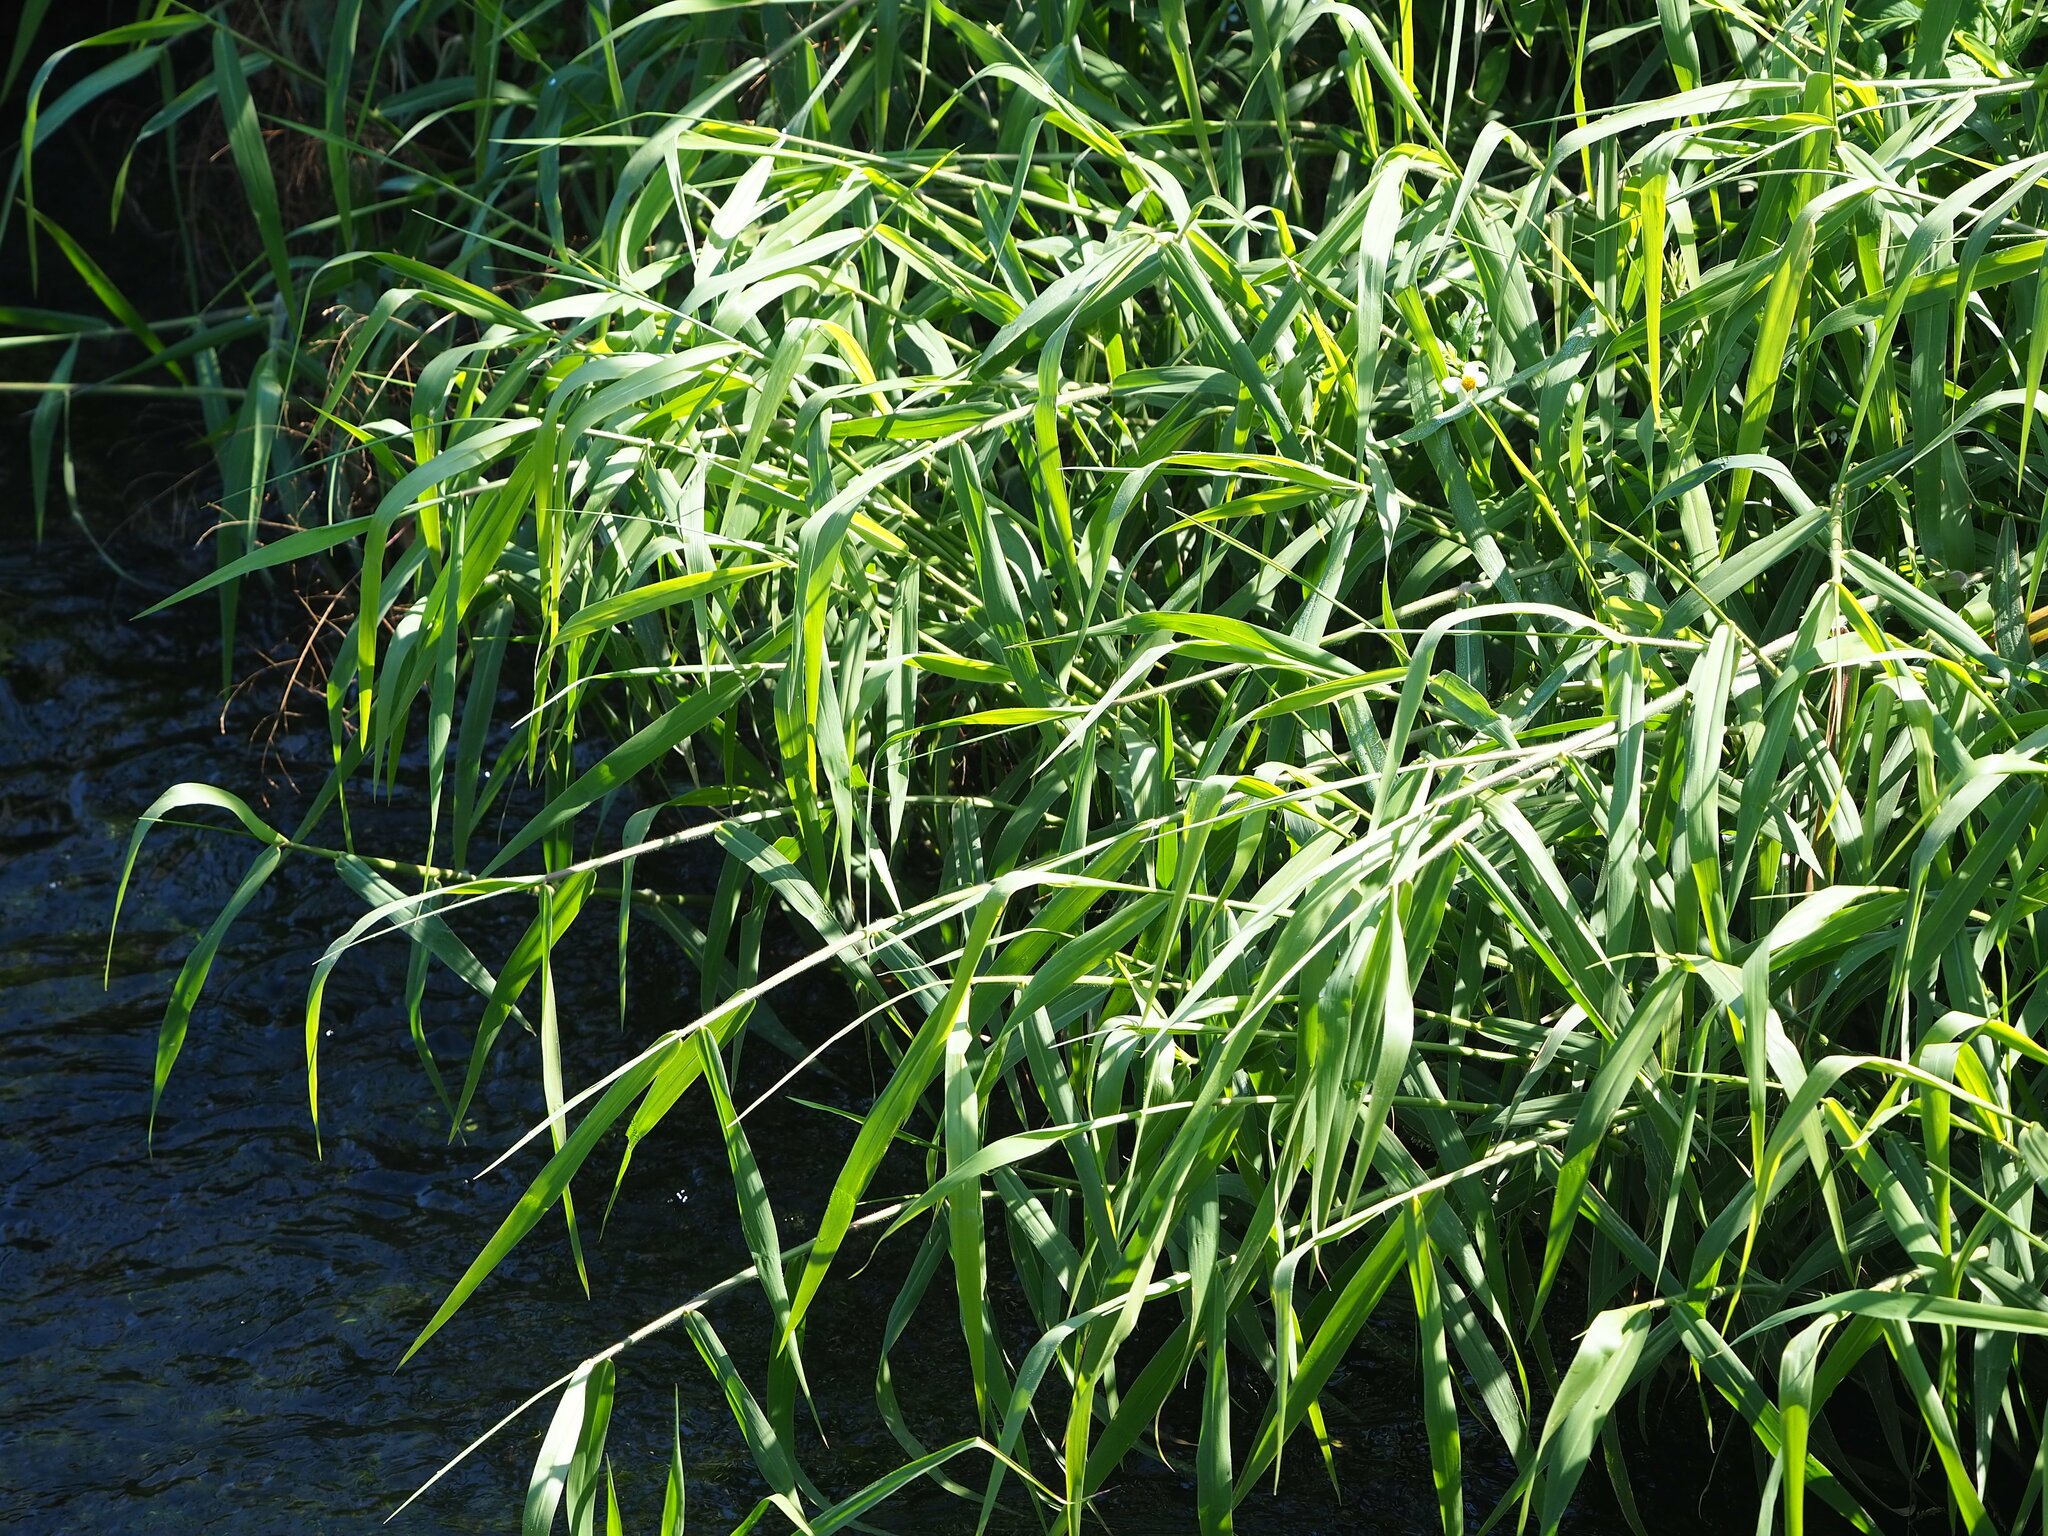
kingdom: Plantae
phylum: Tracheophyta
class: Liliopsida
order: Poales
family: Poaceae
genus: Urochloa
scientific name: Urochloa mutica
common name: Para grass
